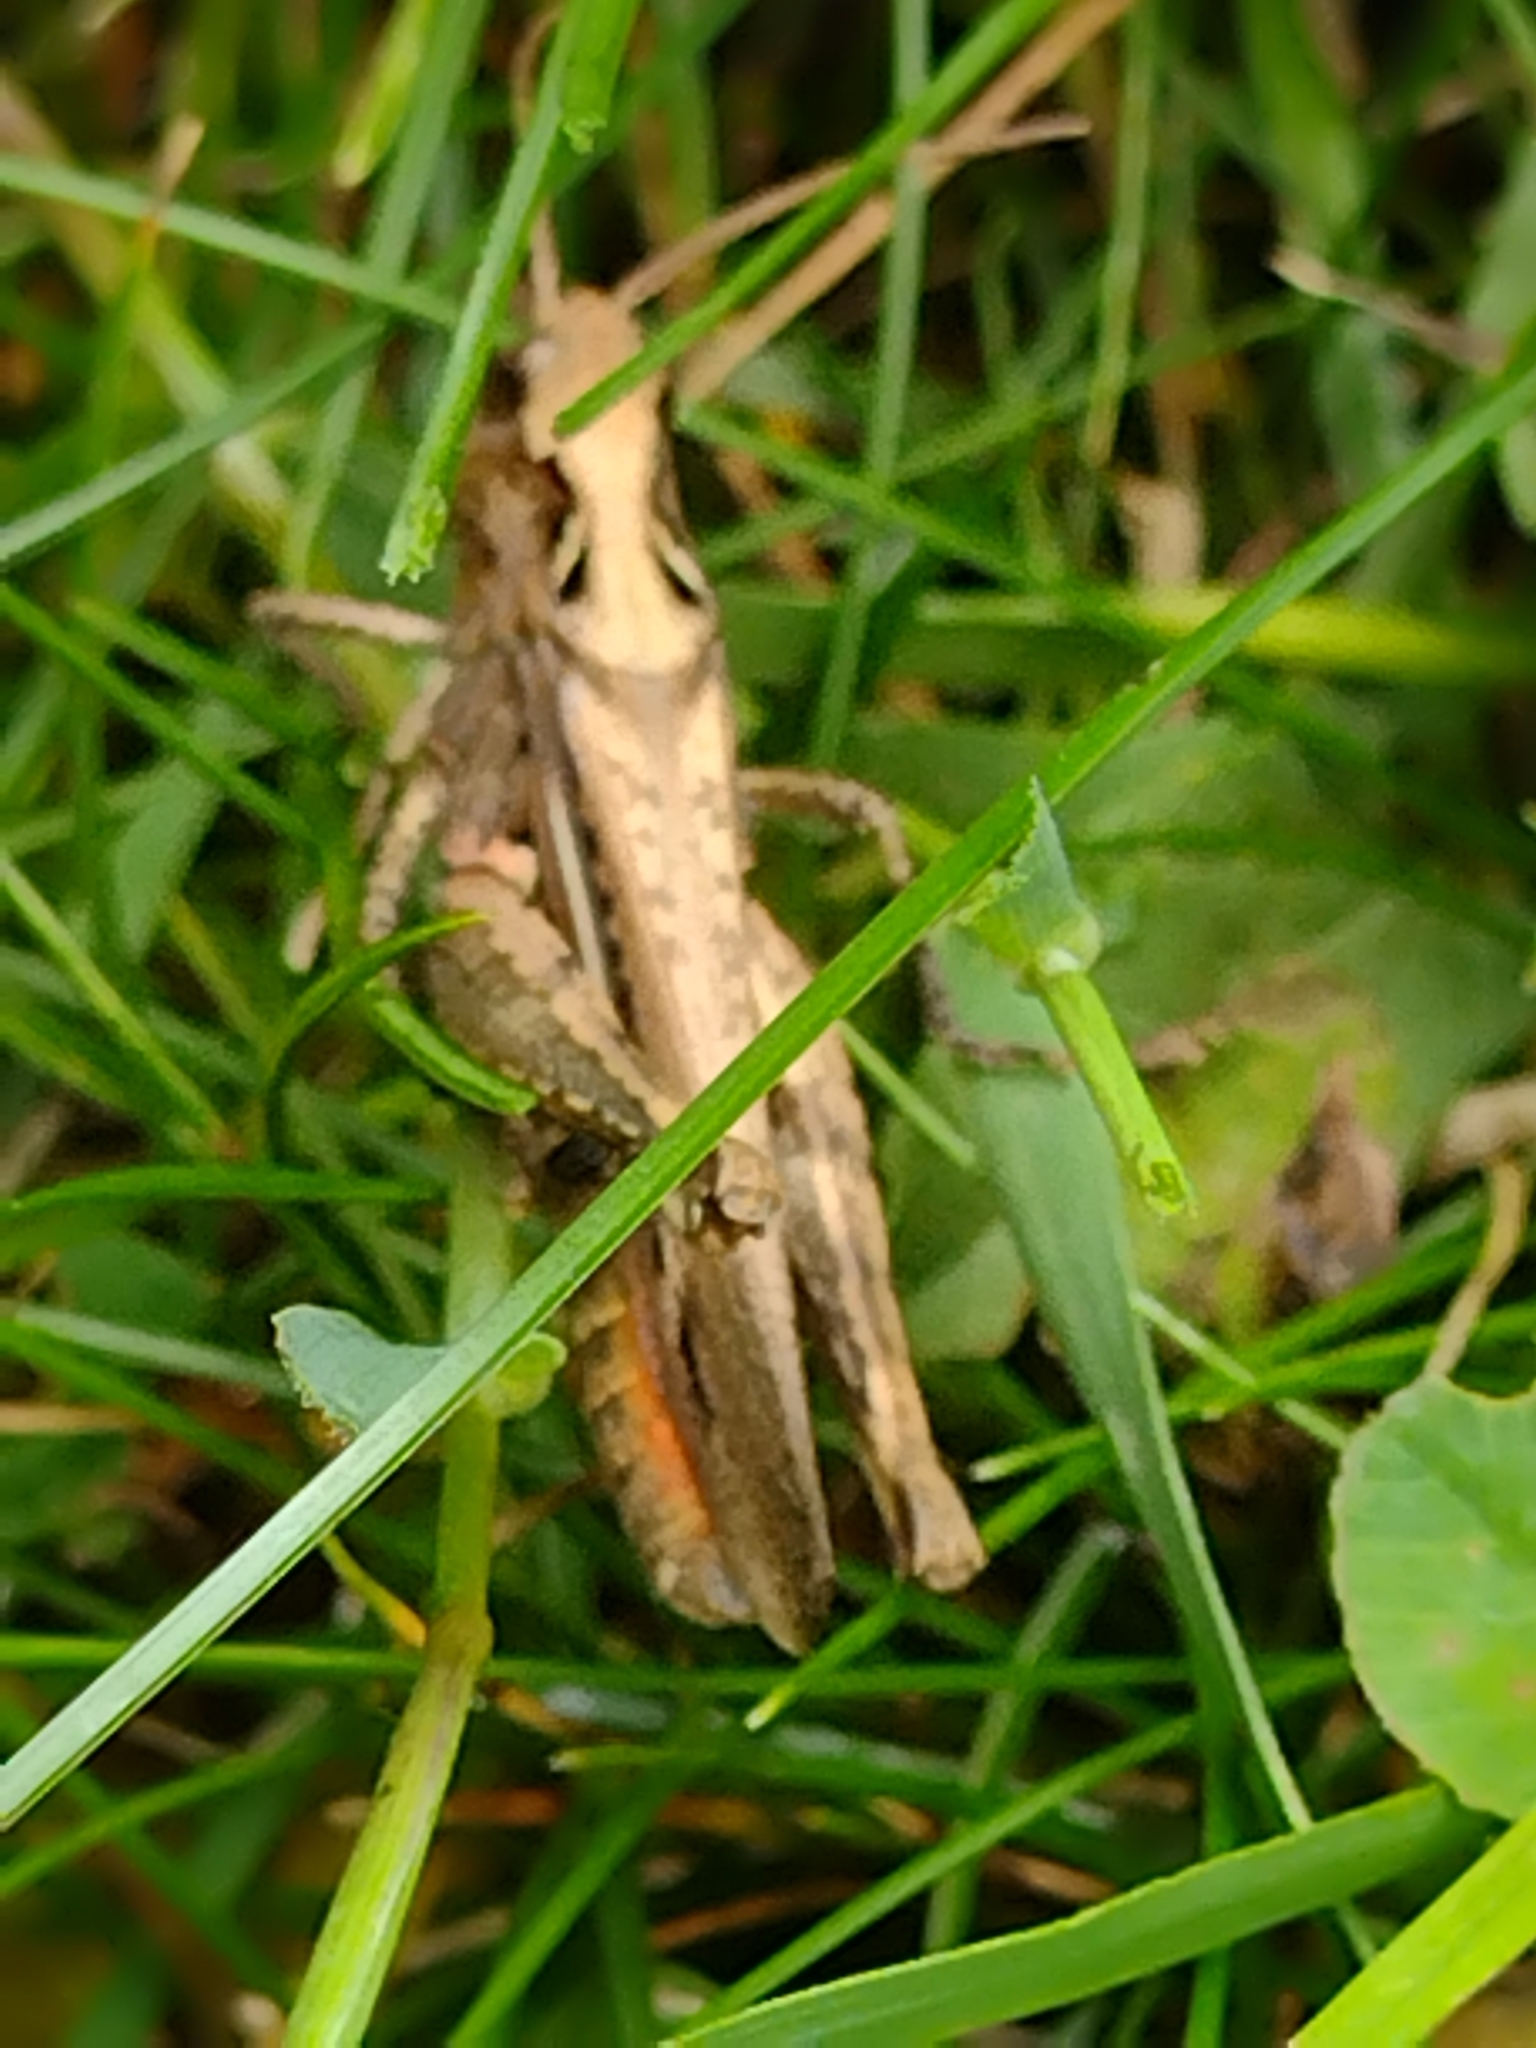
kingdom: Animalia
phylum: Arthropoda
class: Insecta
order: Orthoptera
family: Acrididae
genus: Chorthippus
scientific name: Chorthippus brunneus
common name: Field grasshopper
